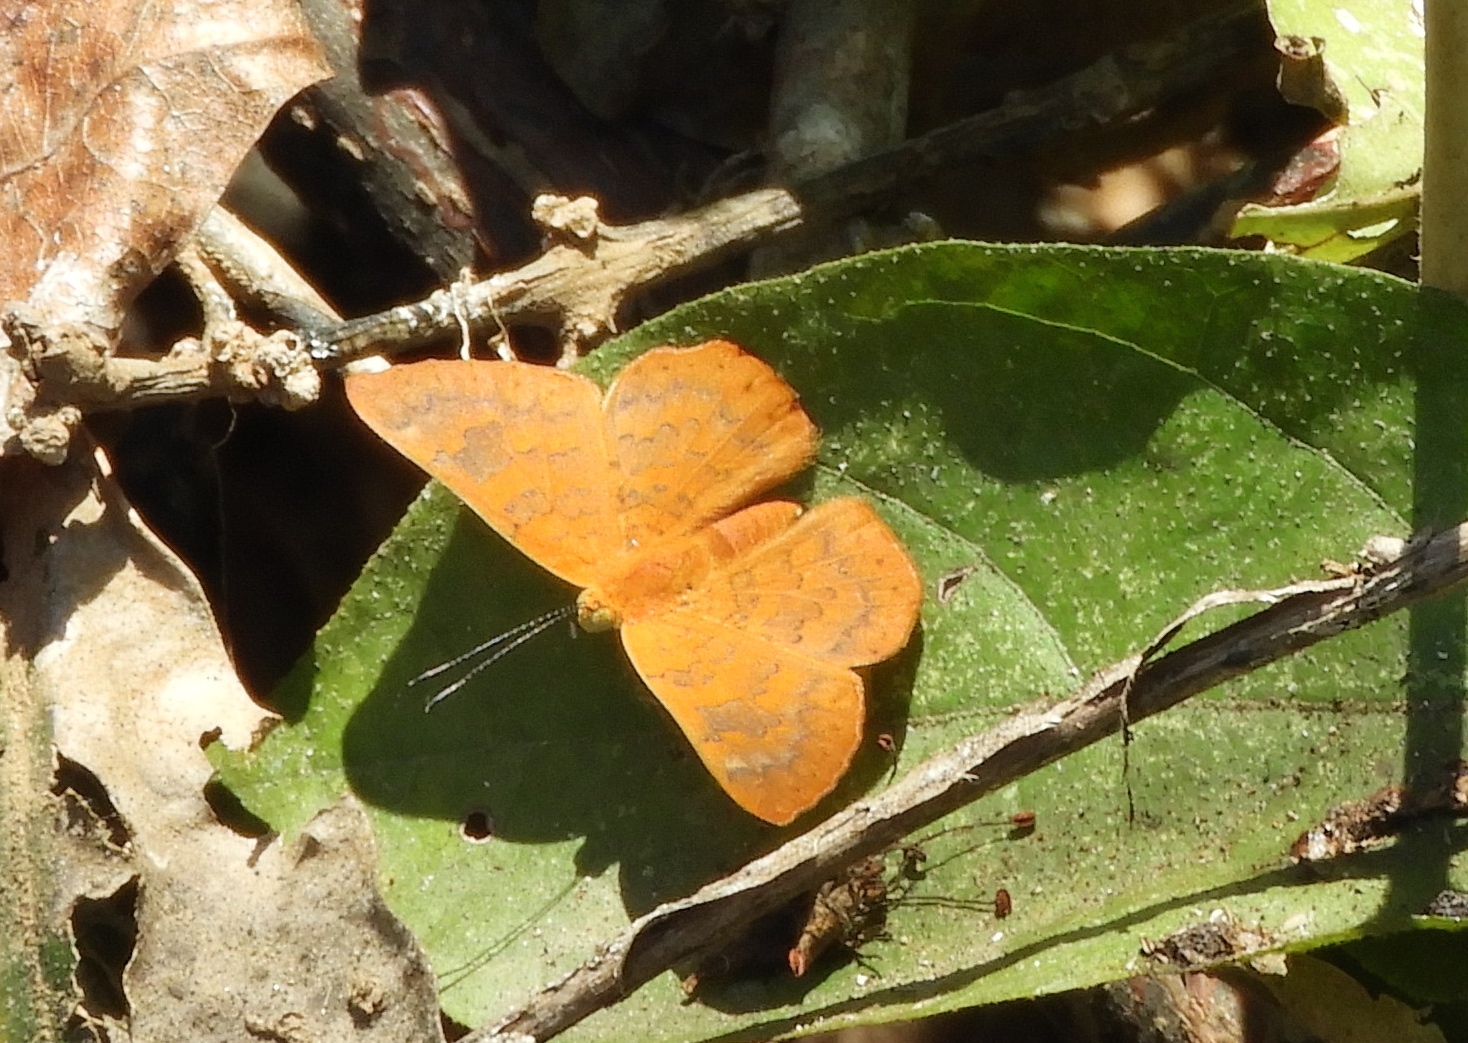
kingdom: Animalia
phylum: Arthropoda
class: Insecta
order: Lepidoptera
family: Riodinidae
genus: Curvie
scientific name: Curvie emesia
